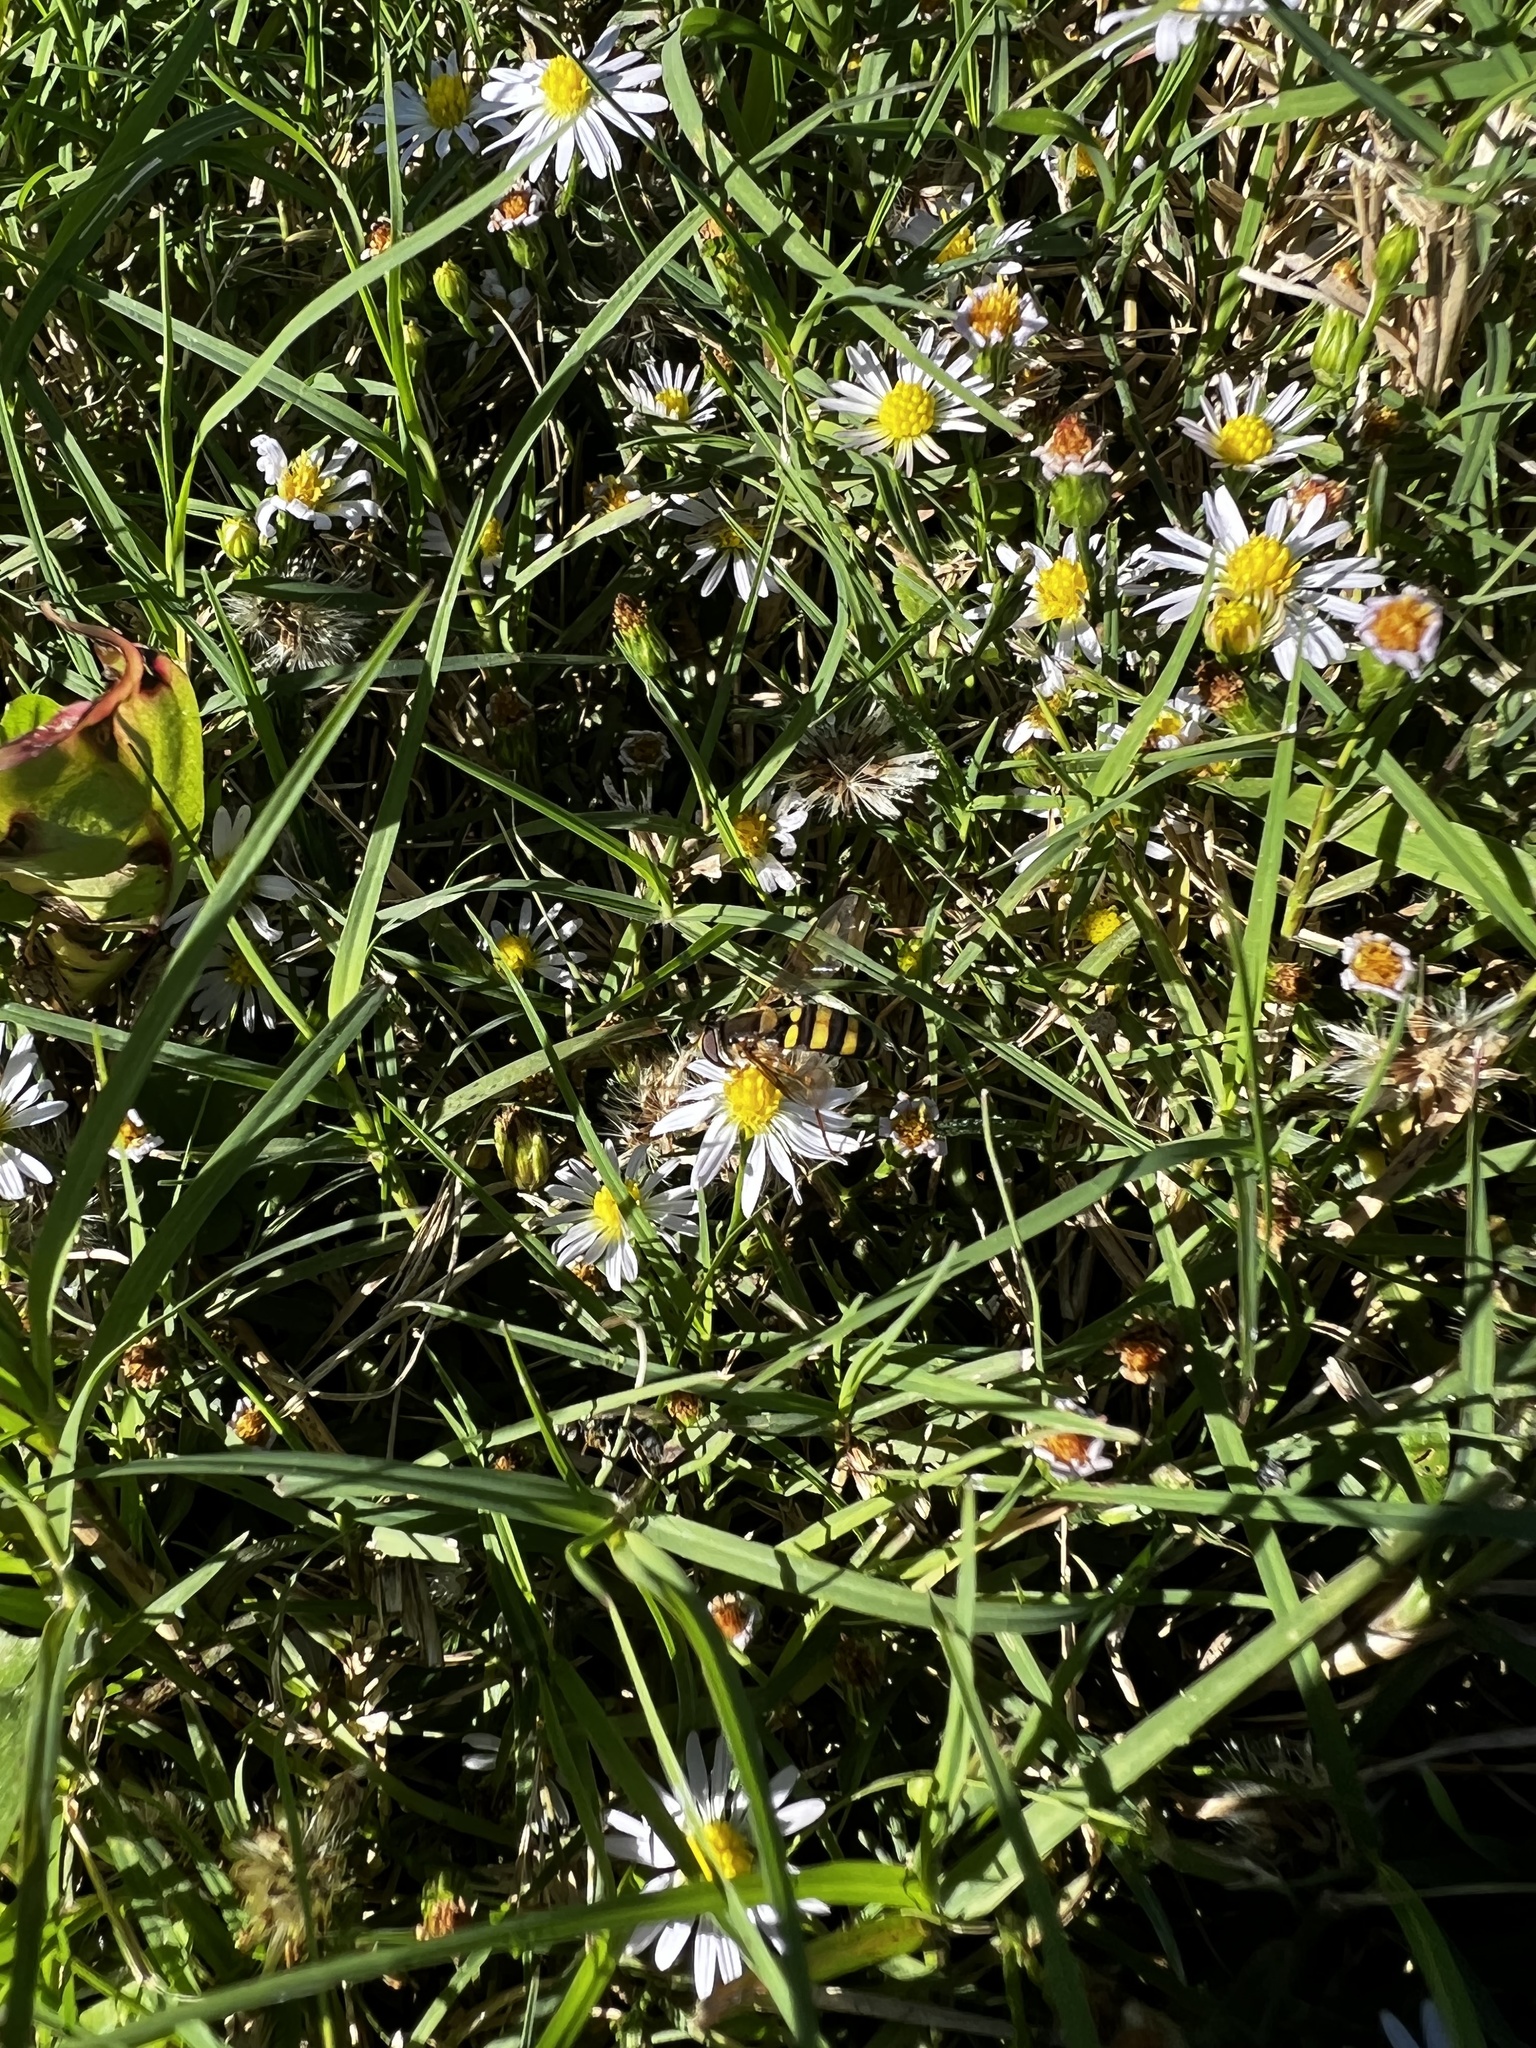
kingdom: Animalia
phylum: Arthropoda
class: Insecta
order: Diptera
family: Syrphidae
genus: Eupeodes
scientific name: Eupeodes
